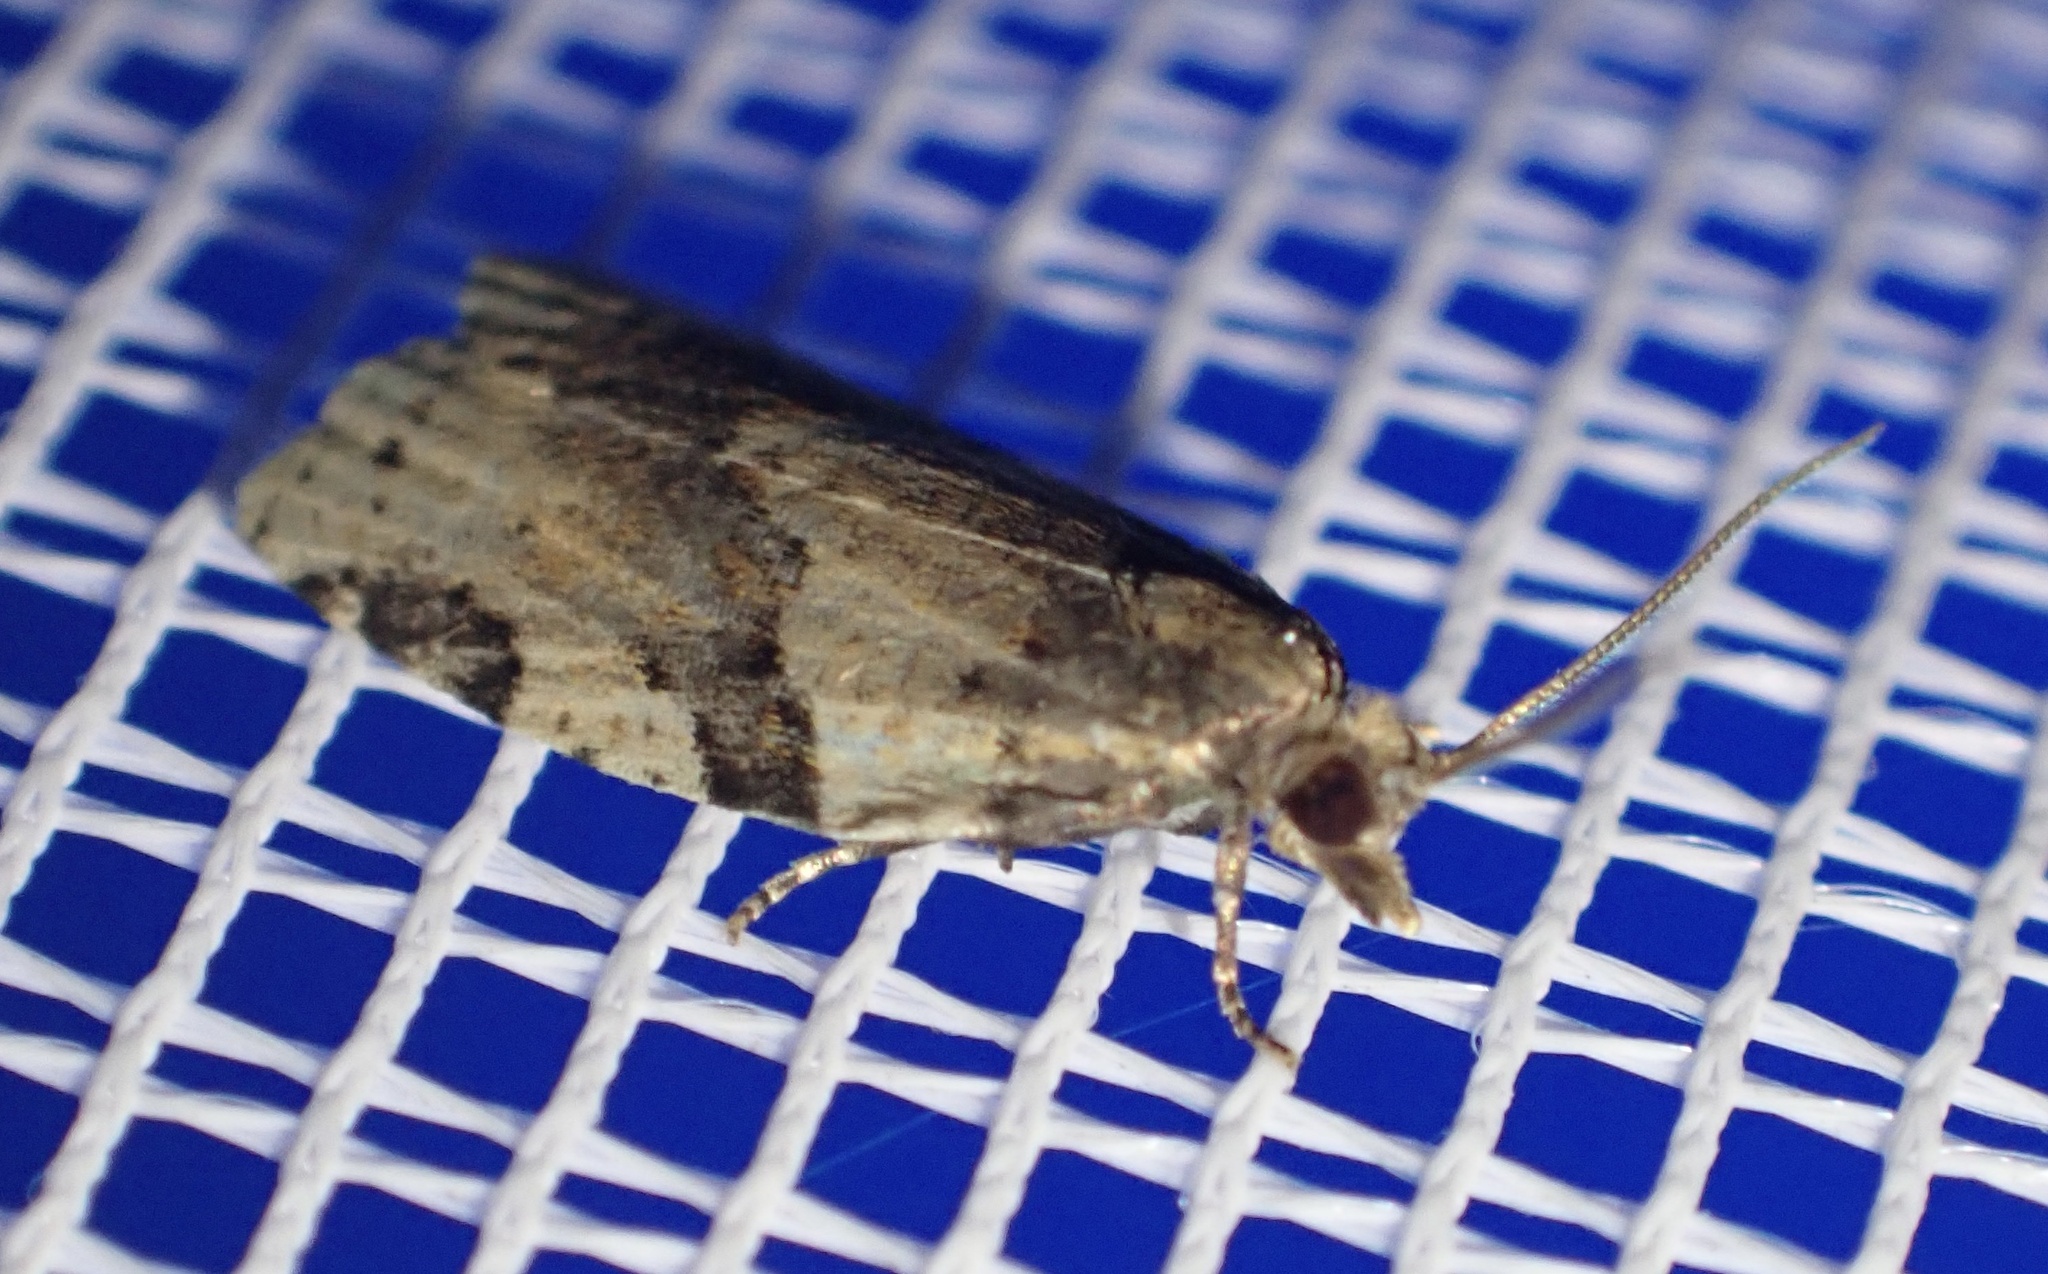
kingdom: Animalia
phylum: Arthropoda
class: Insecta
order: Lepidoptera
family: Tortricidae
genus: Clepsis
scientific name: Clepsis spectrana
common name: Cyclamen tortrix
